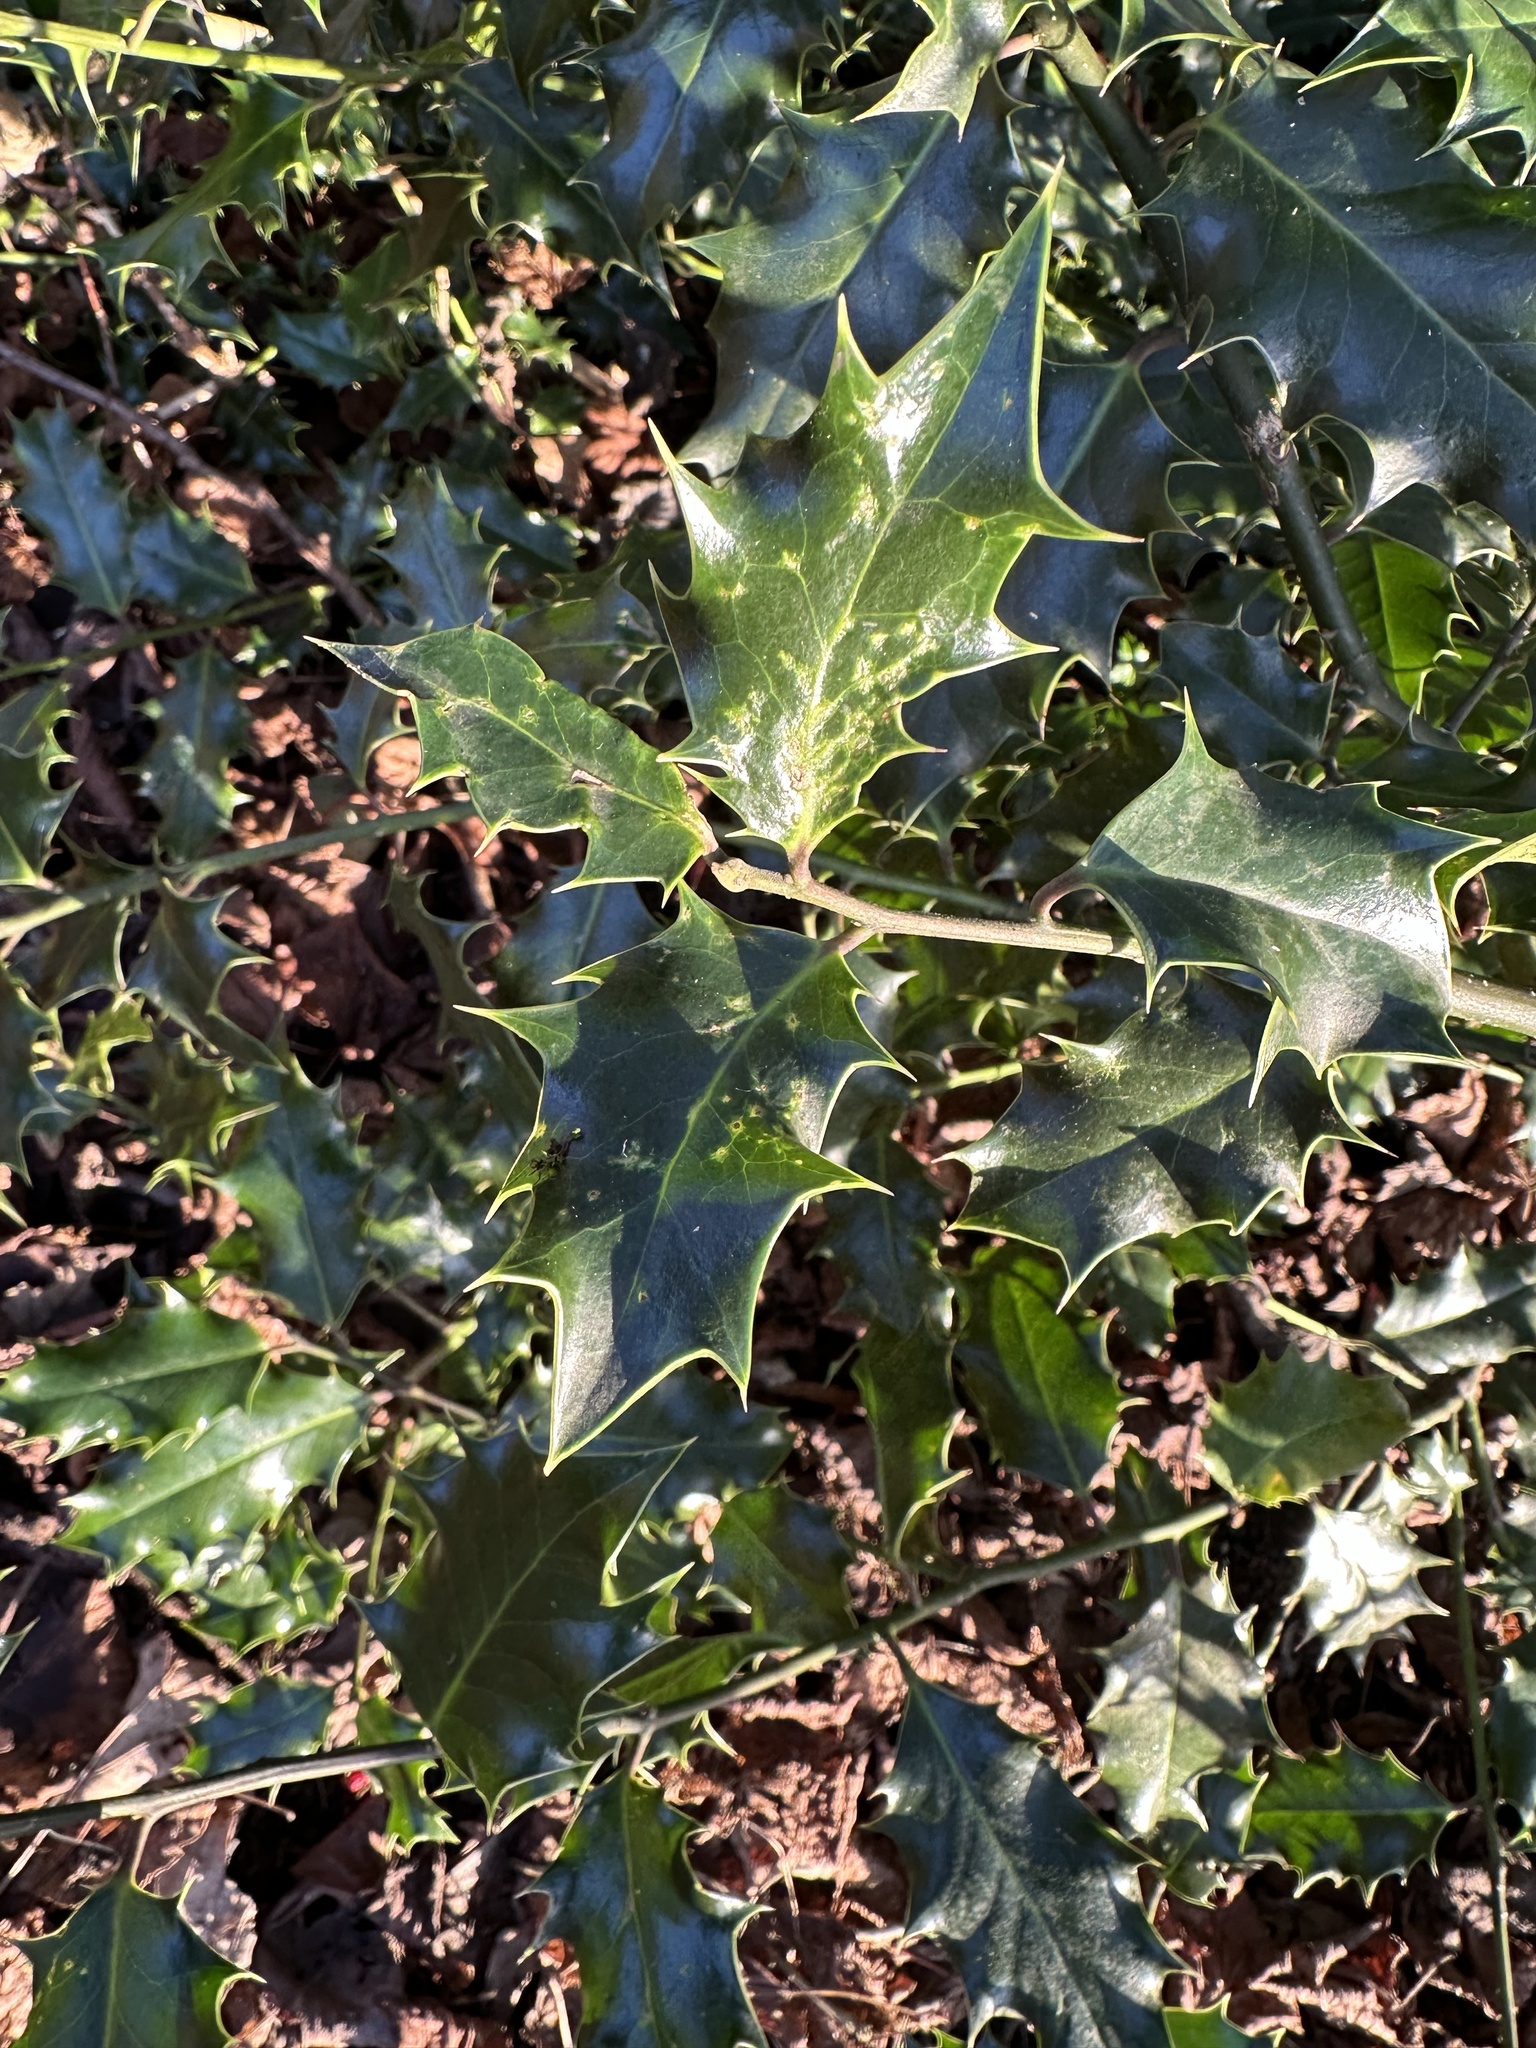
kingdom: Plantae
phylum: Tracheophyta
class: Magnoliopsida
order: Aquifoliales
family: Aquifoliaceae
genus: Ilex
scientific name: Ilex aquifolium
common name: English holly
